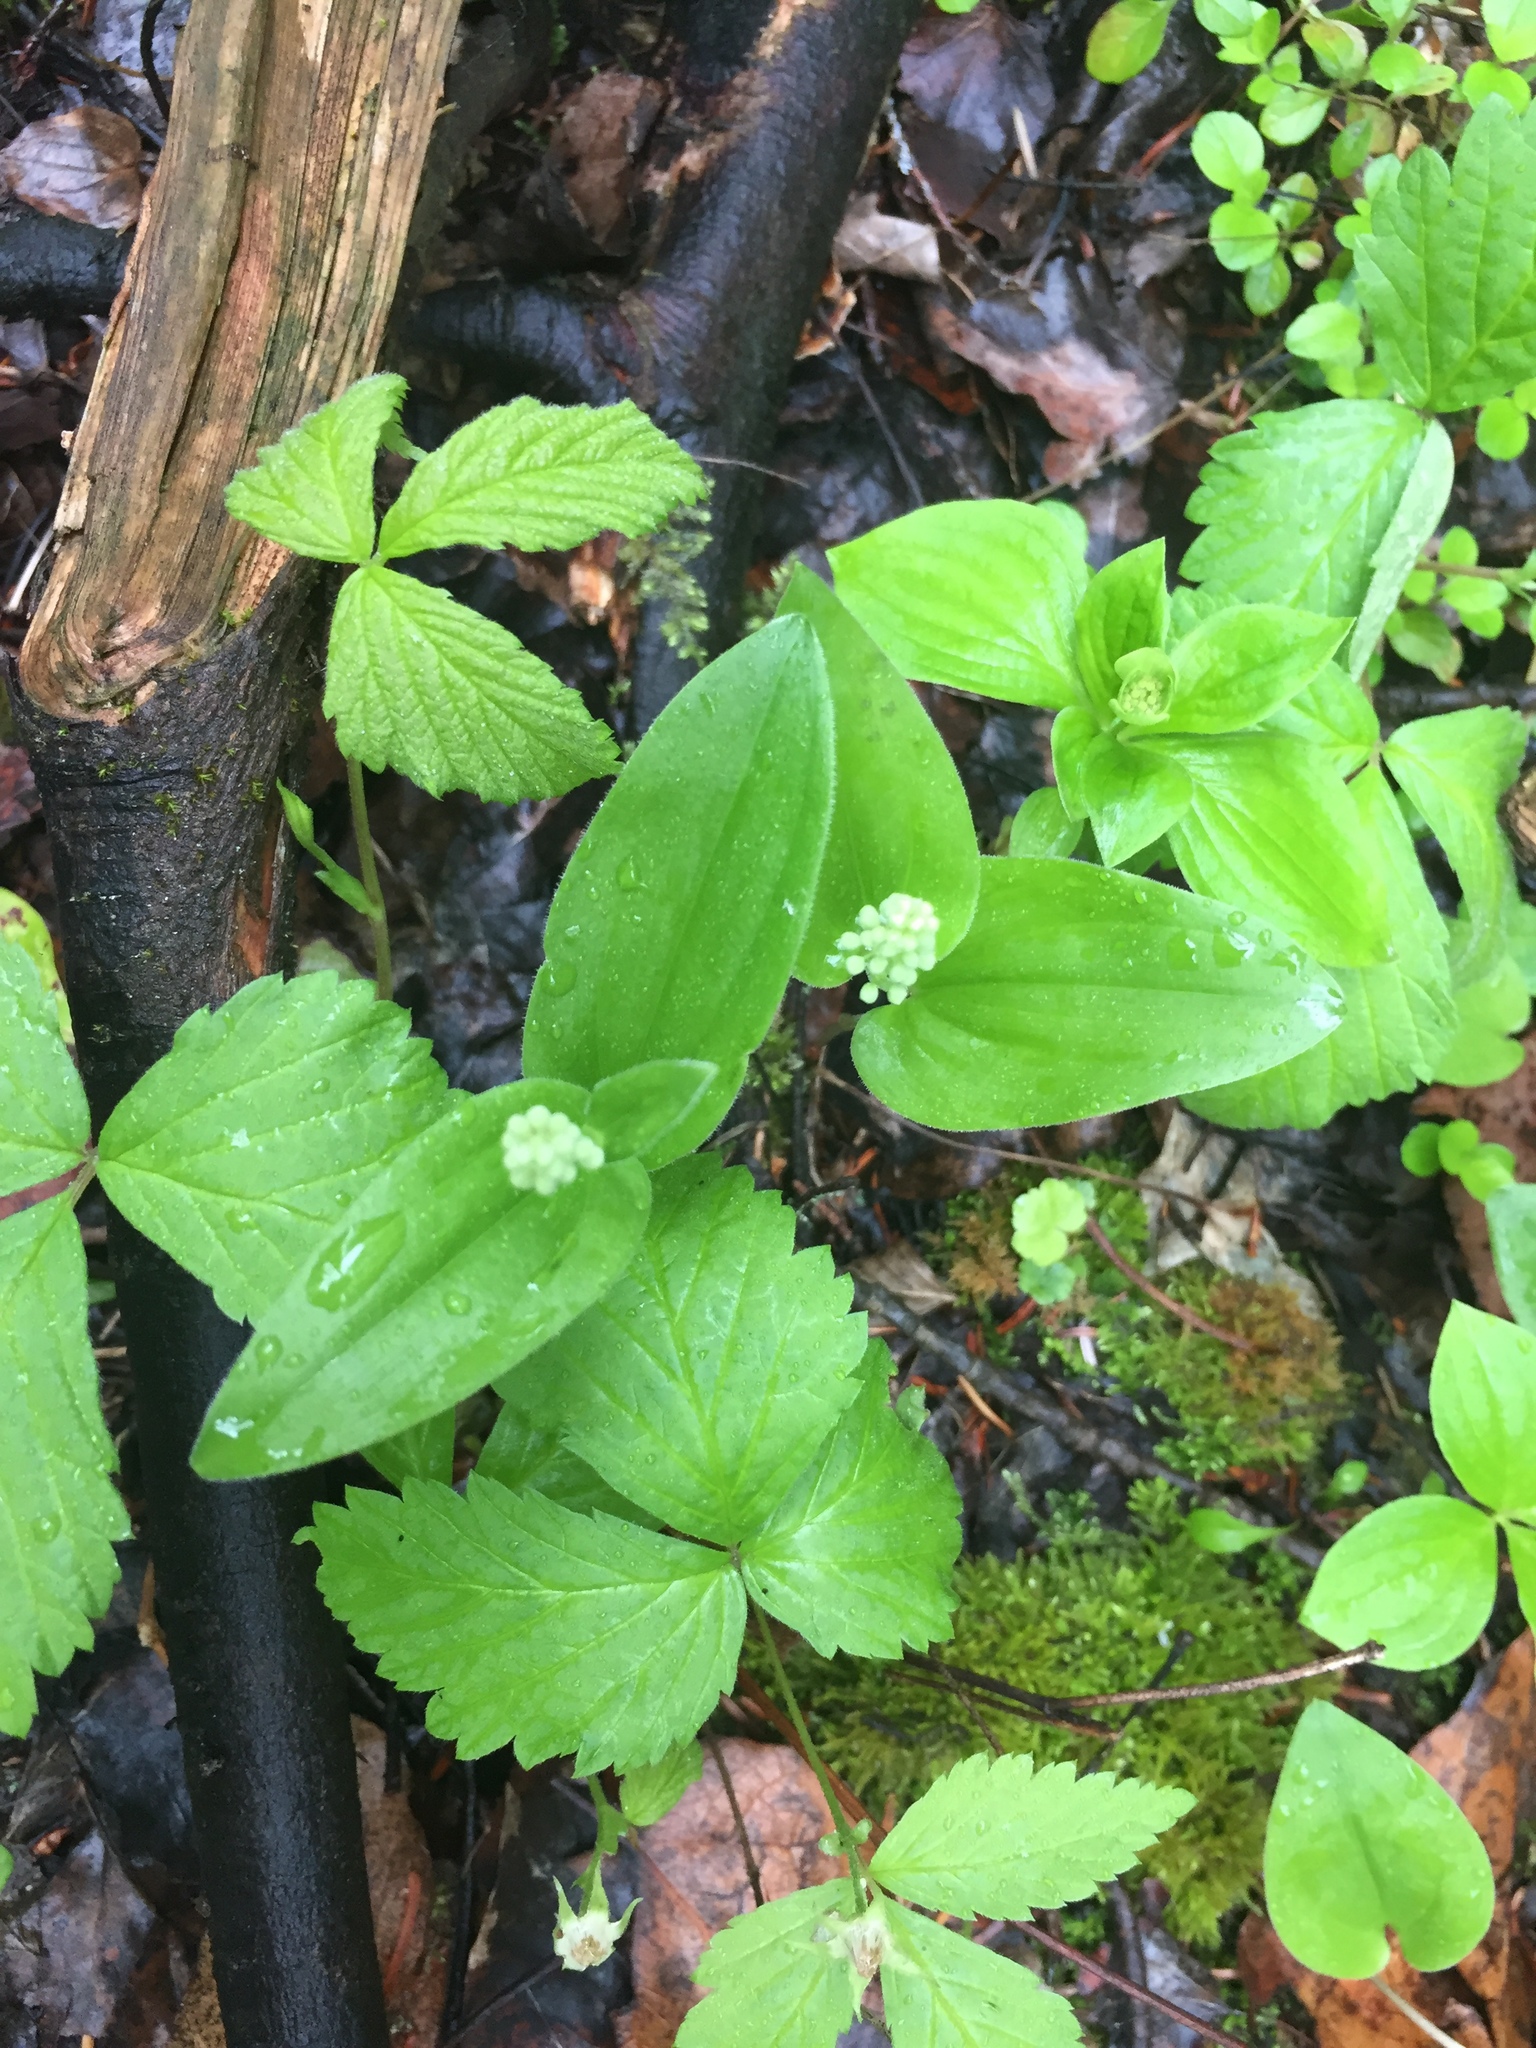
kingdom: Plantae
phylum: Tracheophyta
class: Liliopsida
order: Asparagales
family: Asparagaceae
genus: Maianthemum
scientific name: Maianthemum canadense
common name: False lily-of-the-valley
